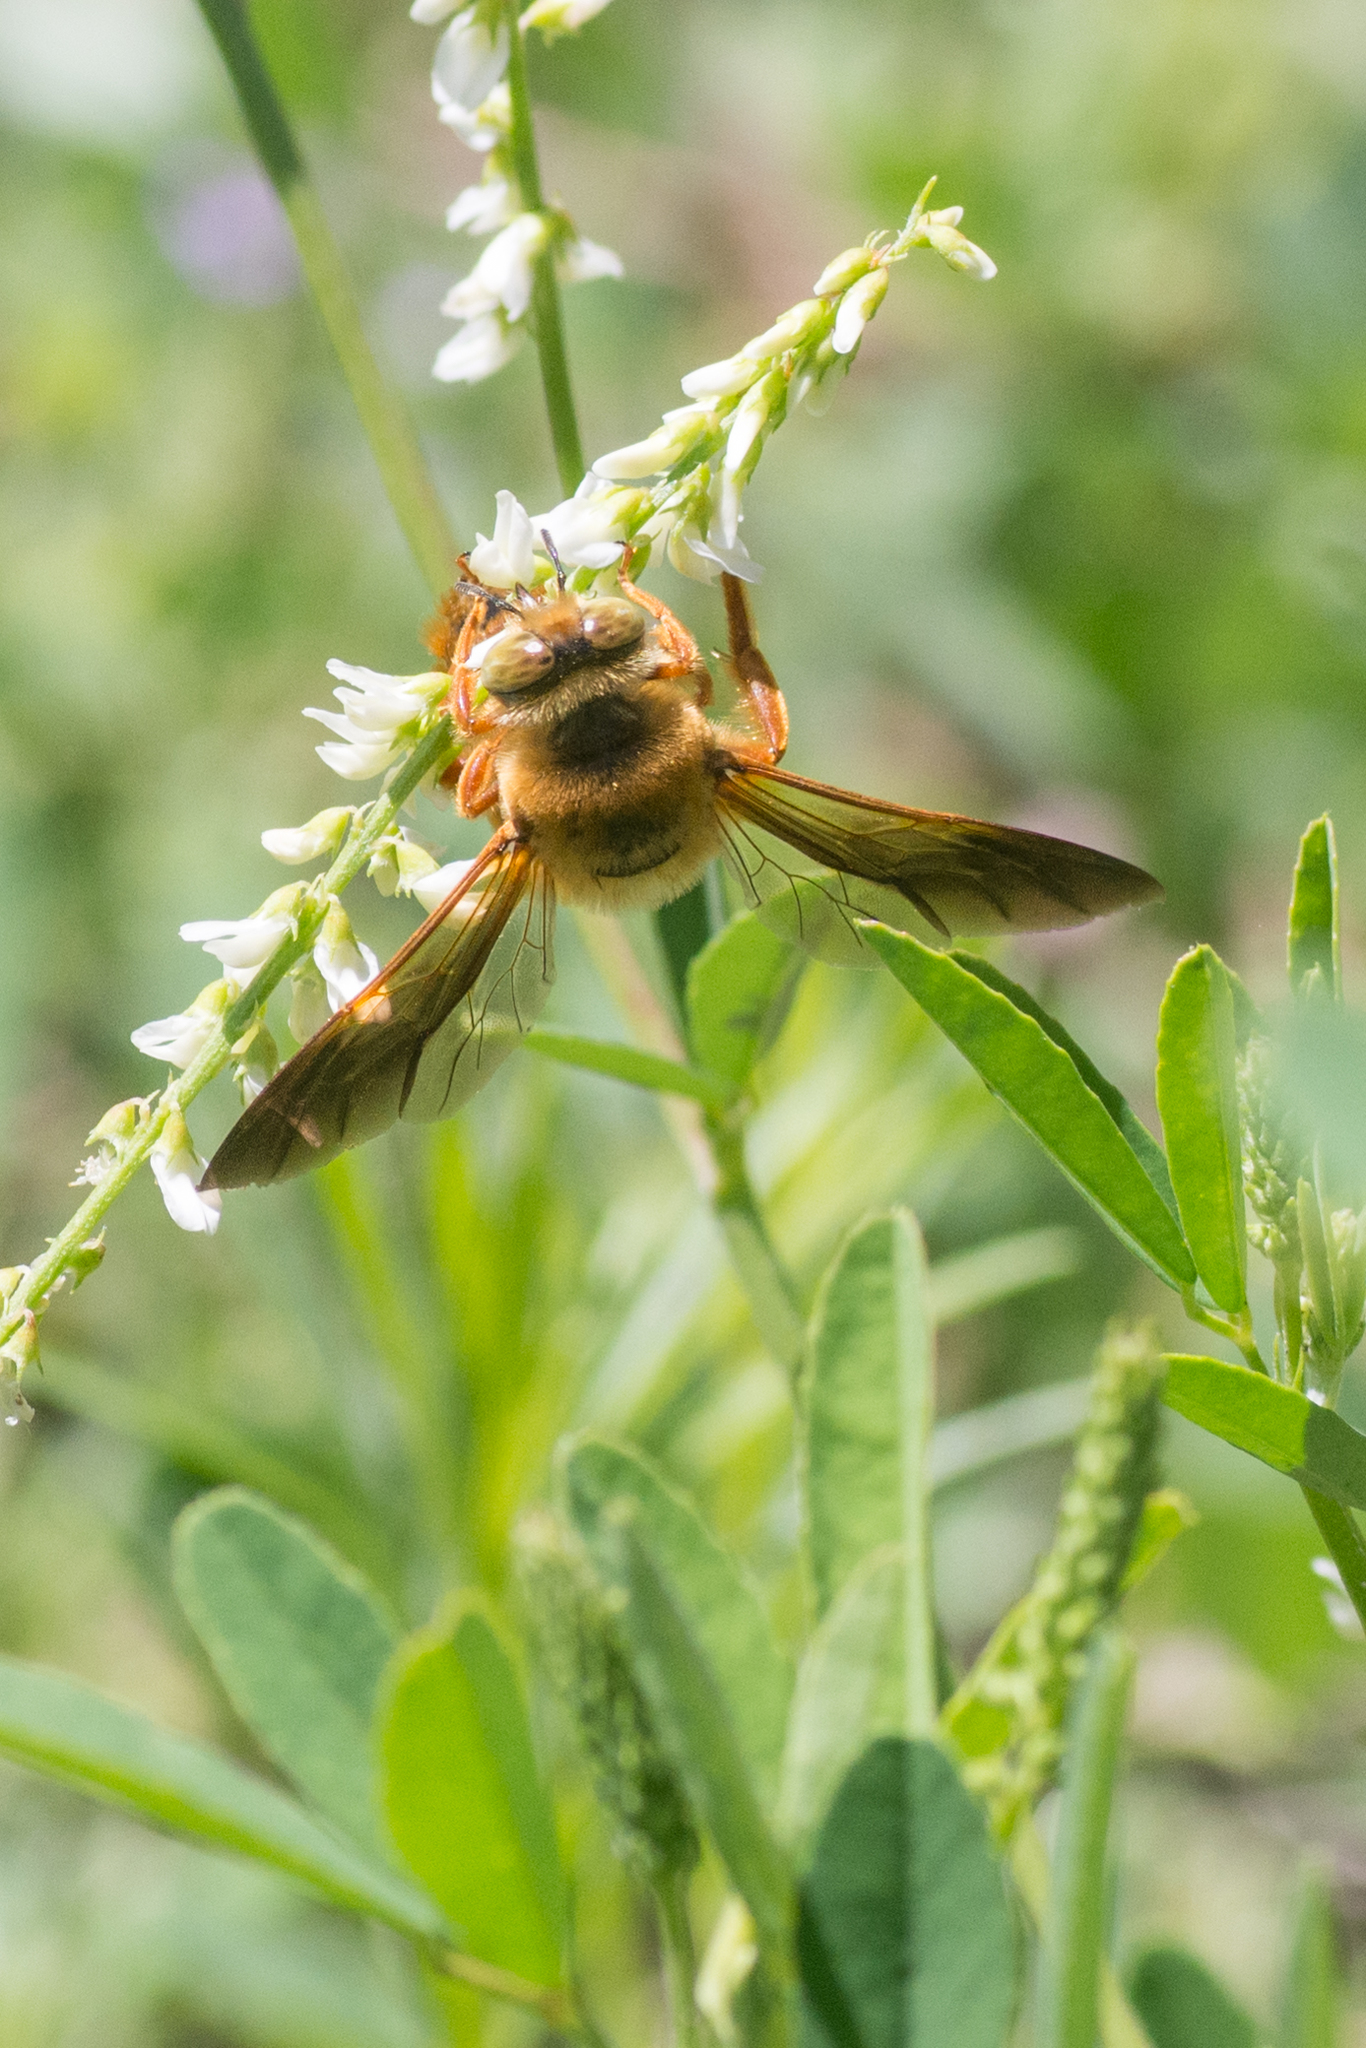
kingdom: Animalia
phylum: Arthropoda
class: Insecta
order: Hymenoptera
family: Apidae
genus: Xylocopa
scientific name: Xylocopa sonorina
